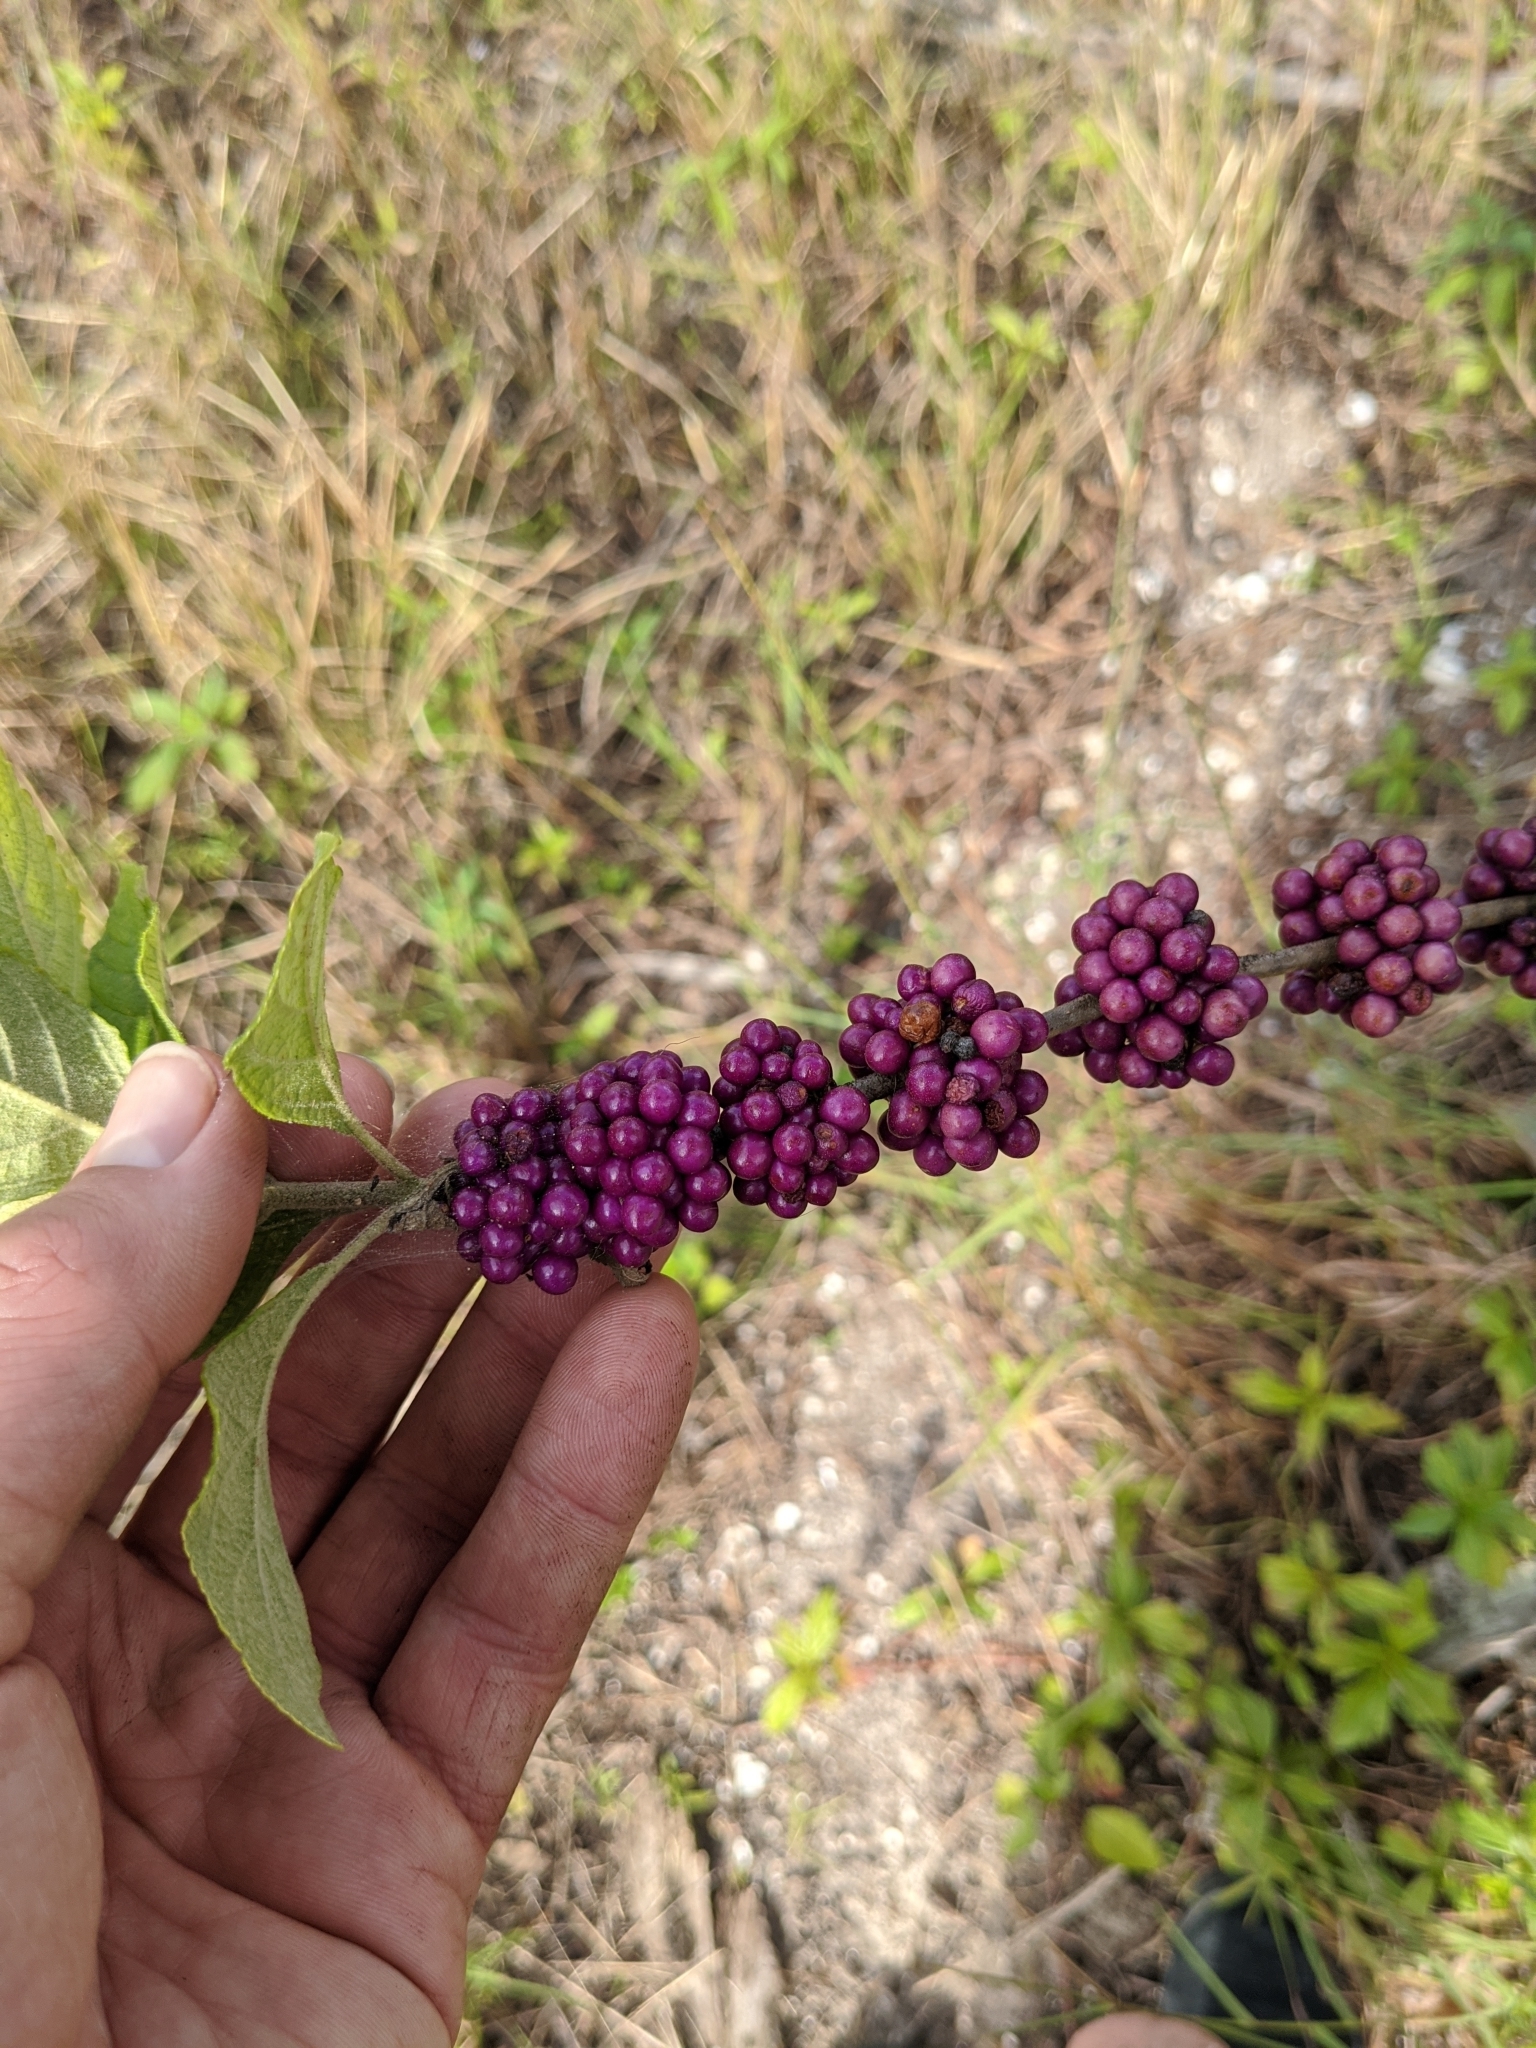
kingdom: Plantae
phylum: Tracheophyta
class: Magnoliopsida
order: Lamiales
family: Lamiaceae
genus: Callicarpa
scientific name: Callicarpa americana
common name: American beautyberry
